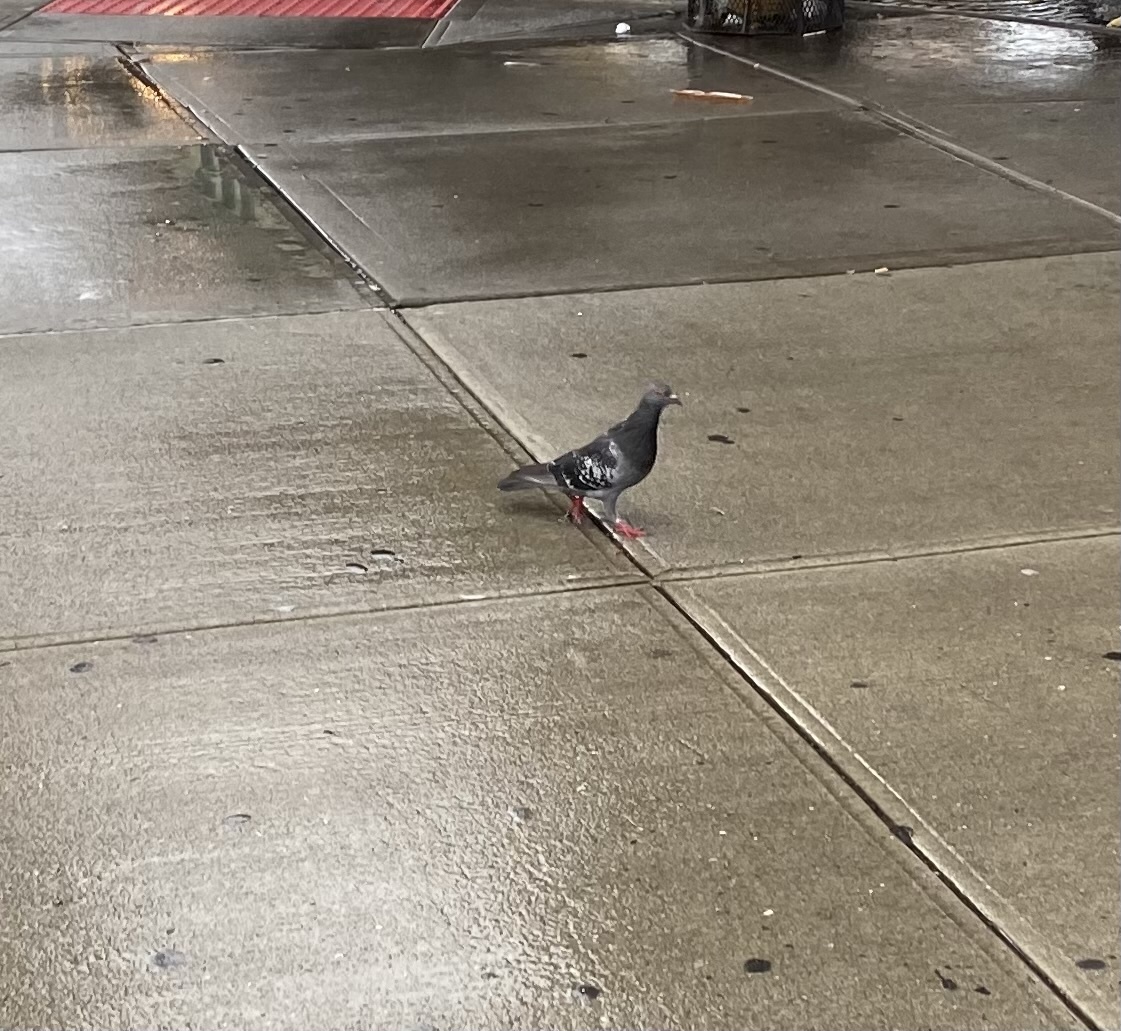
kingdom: Animalia
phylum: Chordata
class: Aves
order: Columbiformes
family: Columbidae
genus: Columba
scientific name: Columba livia
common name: Rock pigeon
